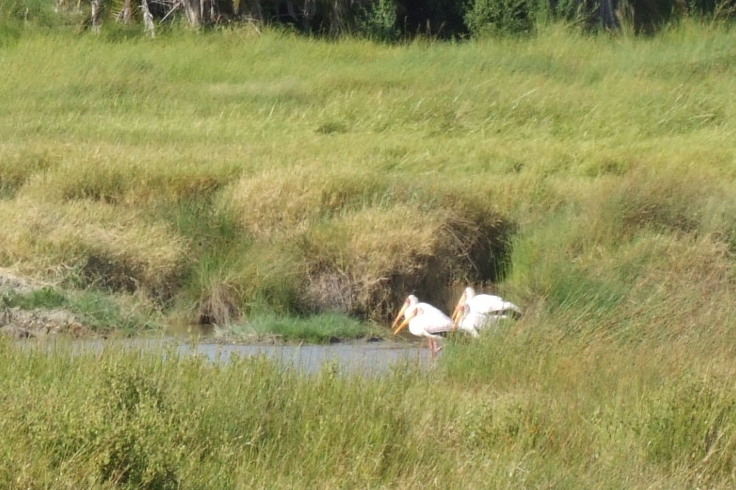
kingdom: Animalia
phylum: Chordata
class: Aves
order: Ciconiiformes
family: Ciconiidae
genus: Mycteria
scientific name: Mycteria ibis
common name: Yellow-billed stork
